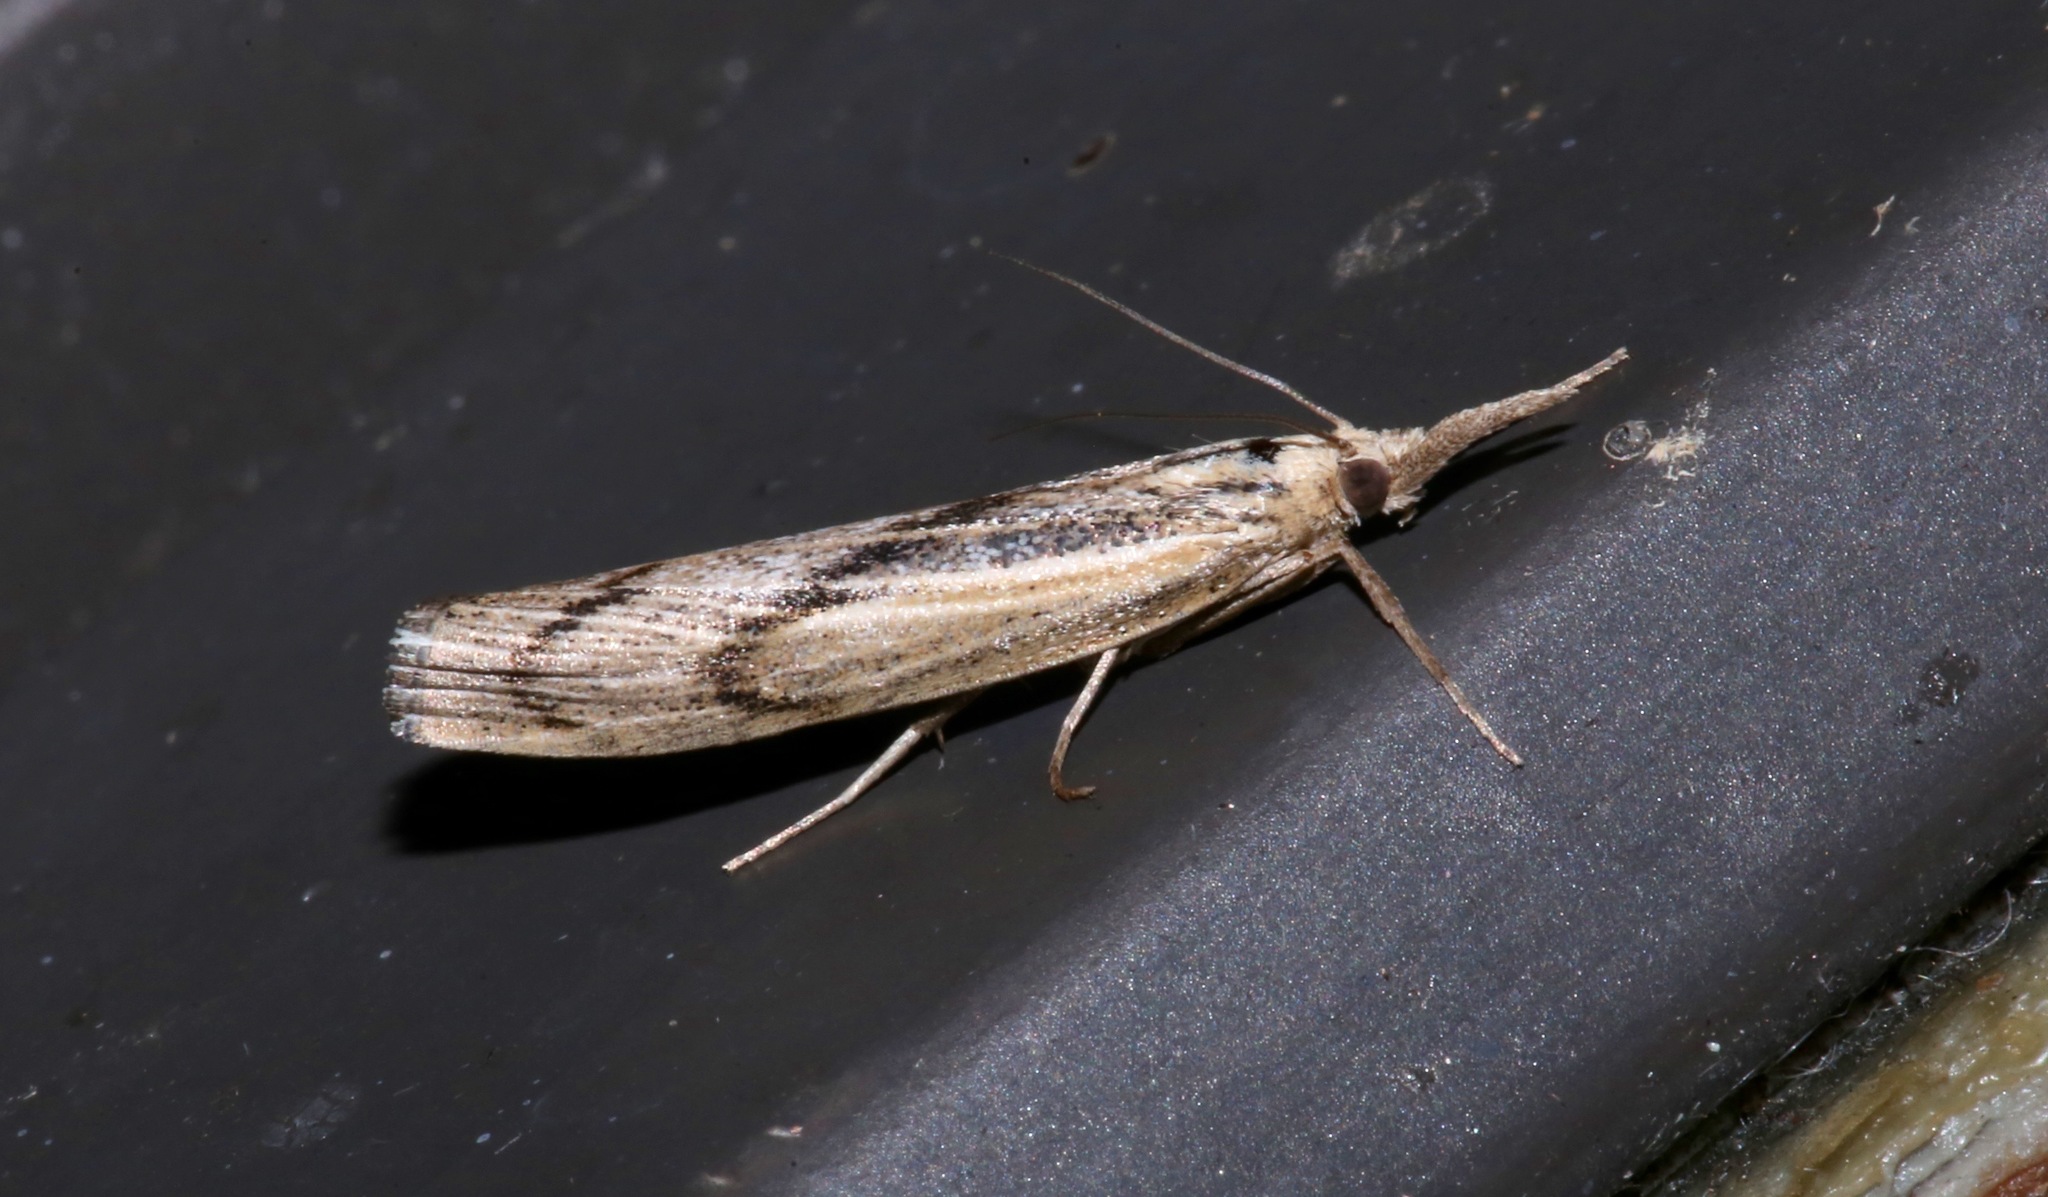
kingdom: Animalia
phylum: Arthropoda
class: Insecta
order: Lepidoptera
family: Crambidae
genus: Pediasia
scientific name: Pediasia trisecta
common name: Sod webworm moth
